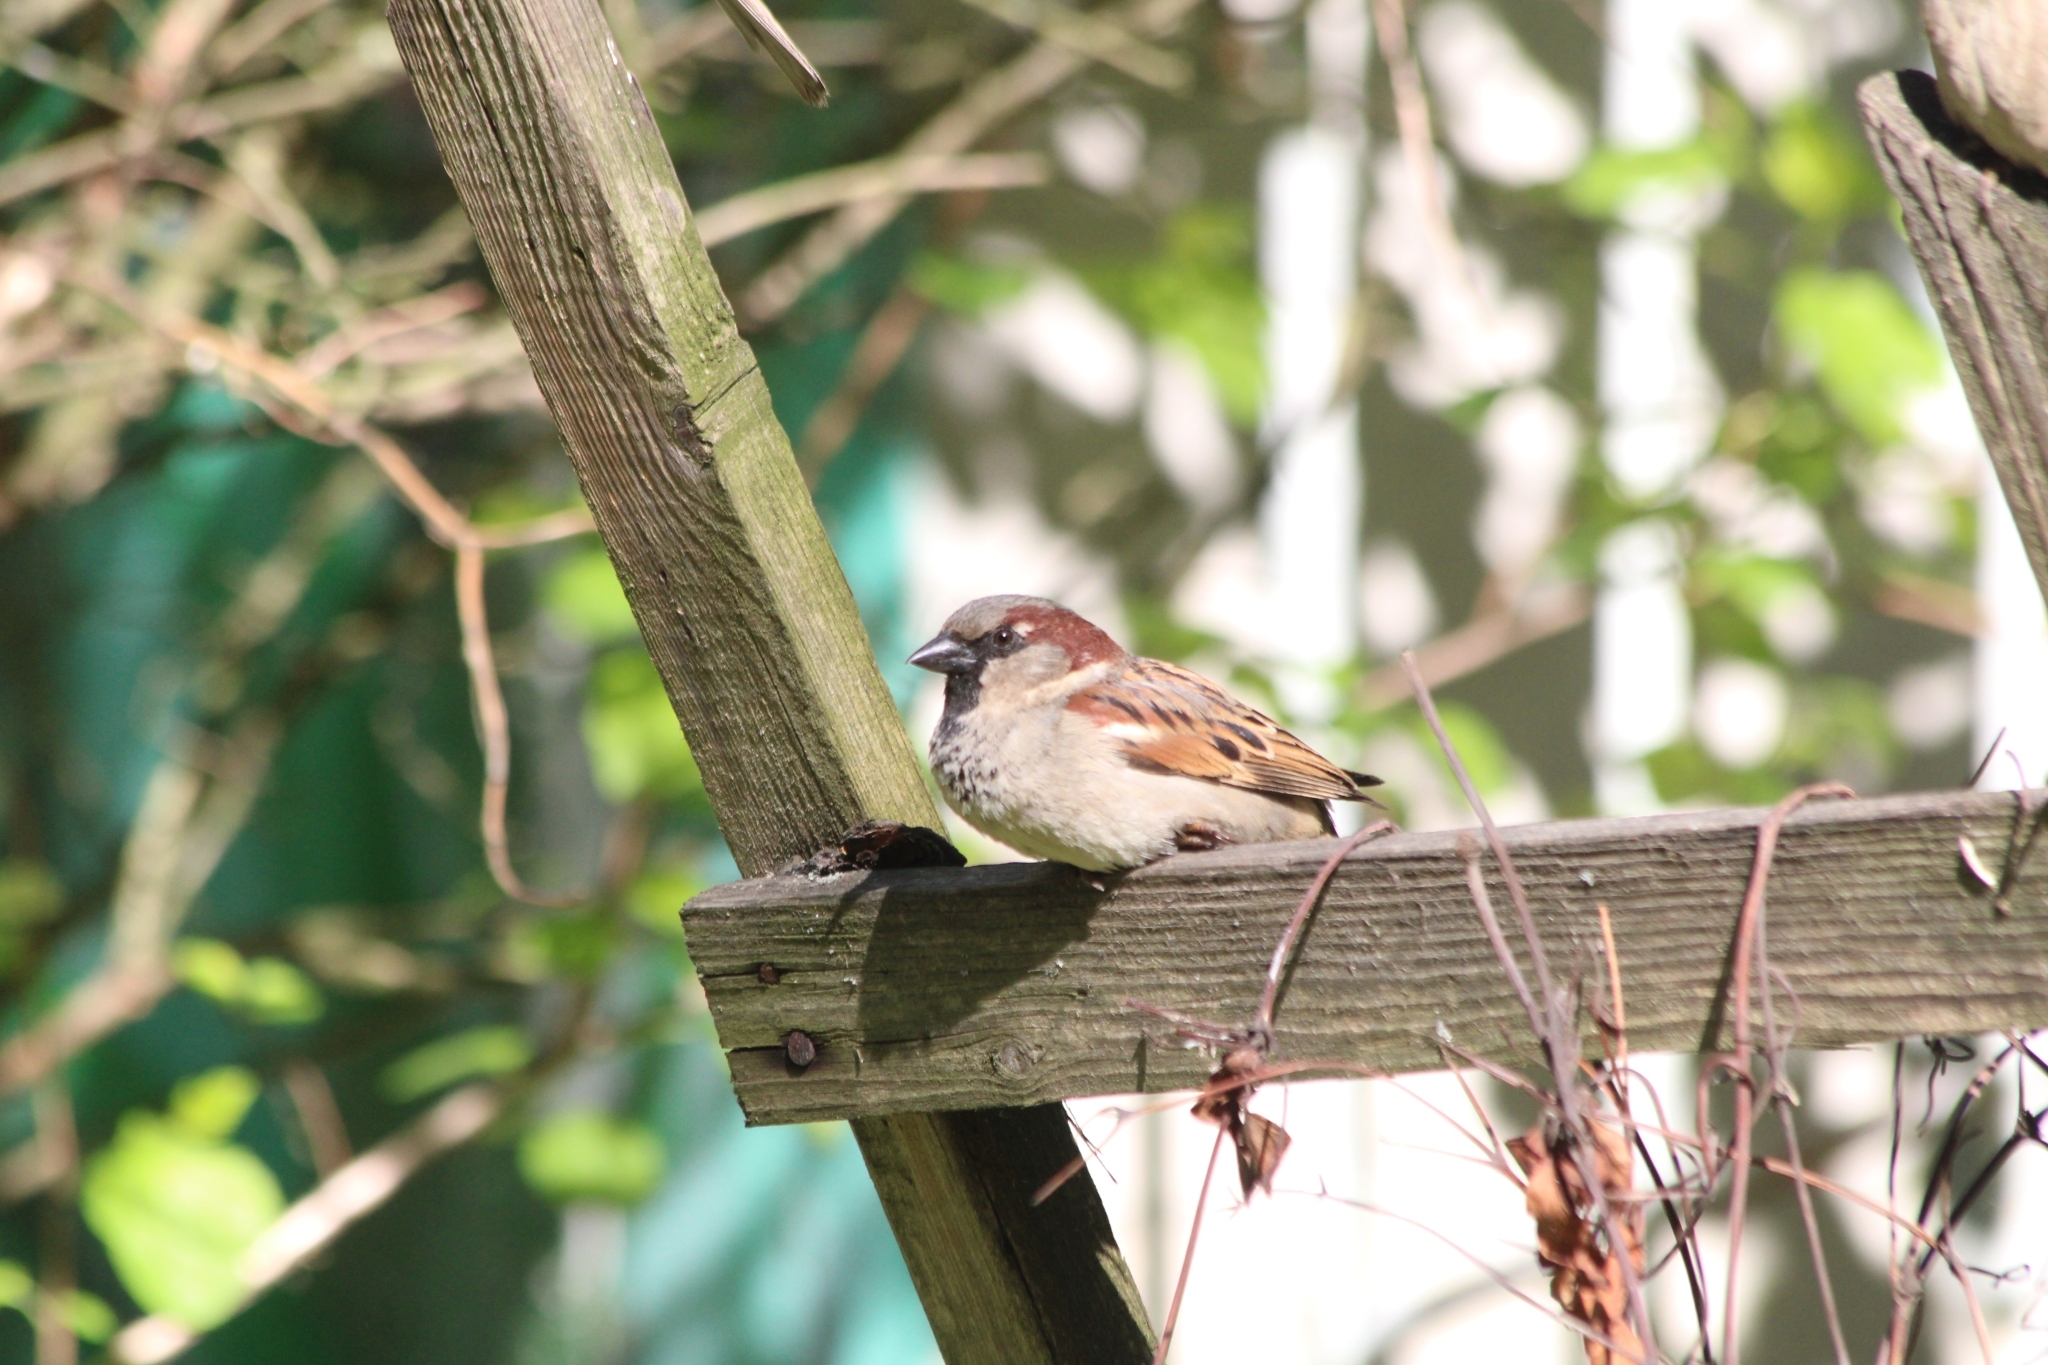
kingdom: Animalia
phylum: Chordata
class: Aves
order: Passeriformes
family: Passeridae
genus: Passer
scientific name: Passer domesticus
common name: House sparrow
